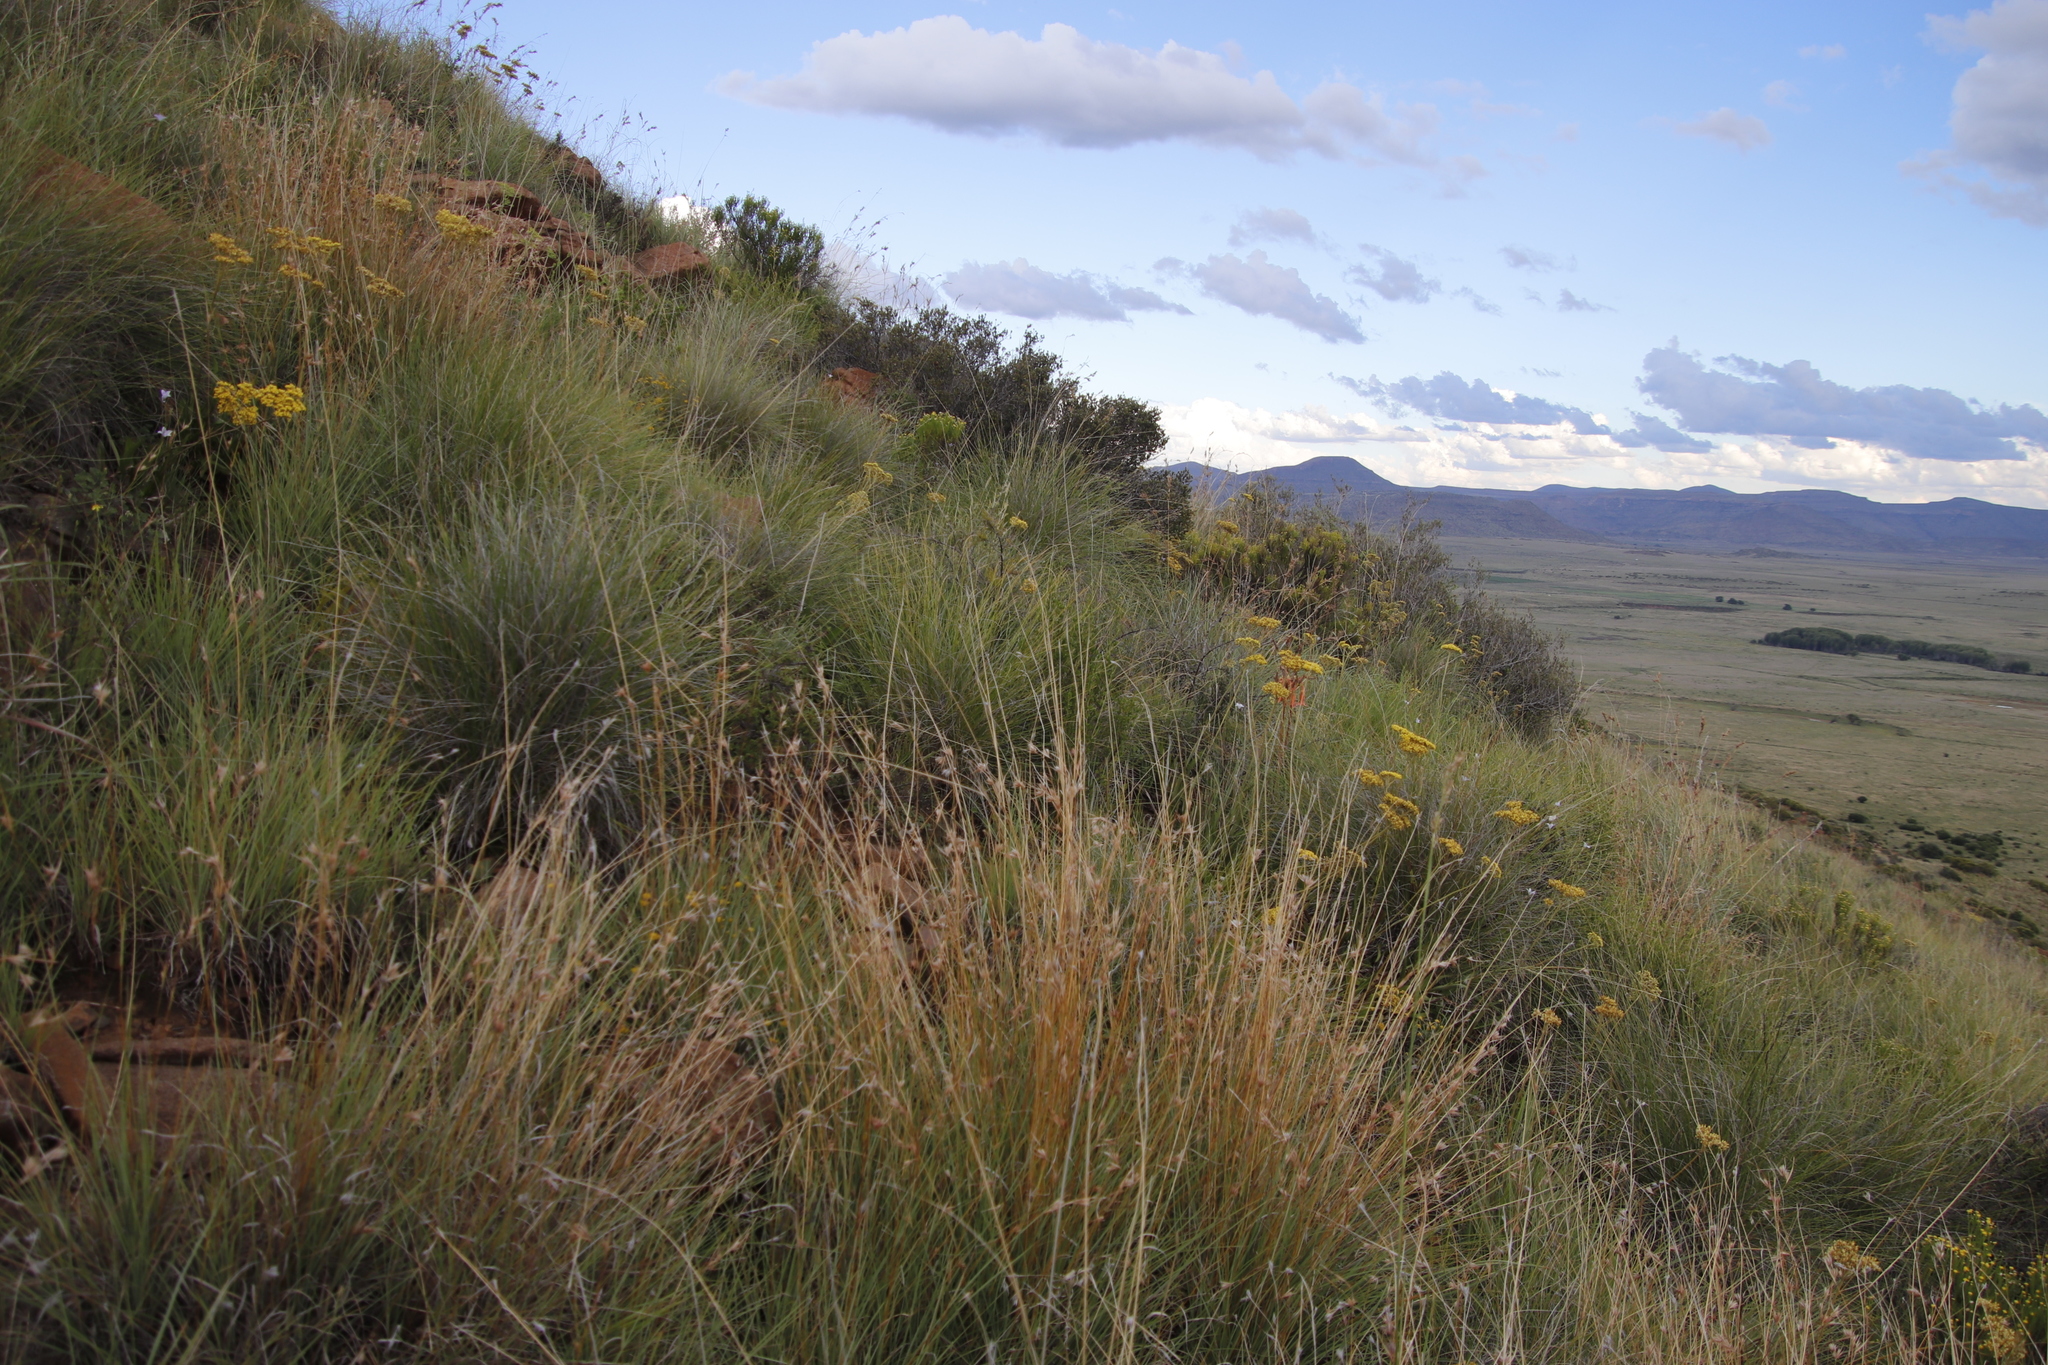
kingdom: Plantae
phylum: Tracheophyta
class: Liliopsida
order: Poales
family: Poaceae
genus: Themeda
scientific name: Themeda triandra
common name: Kangaroo grass
